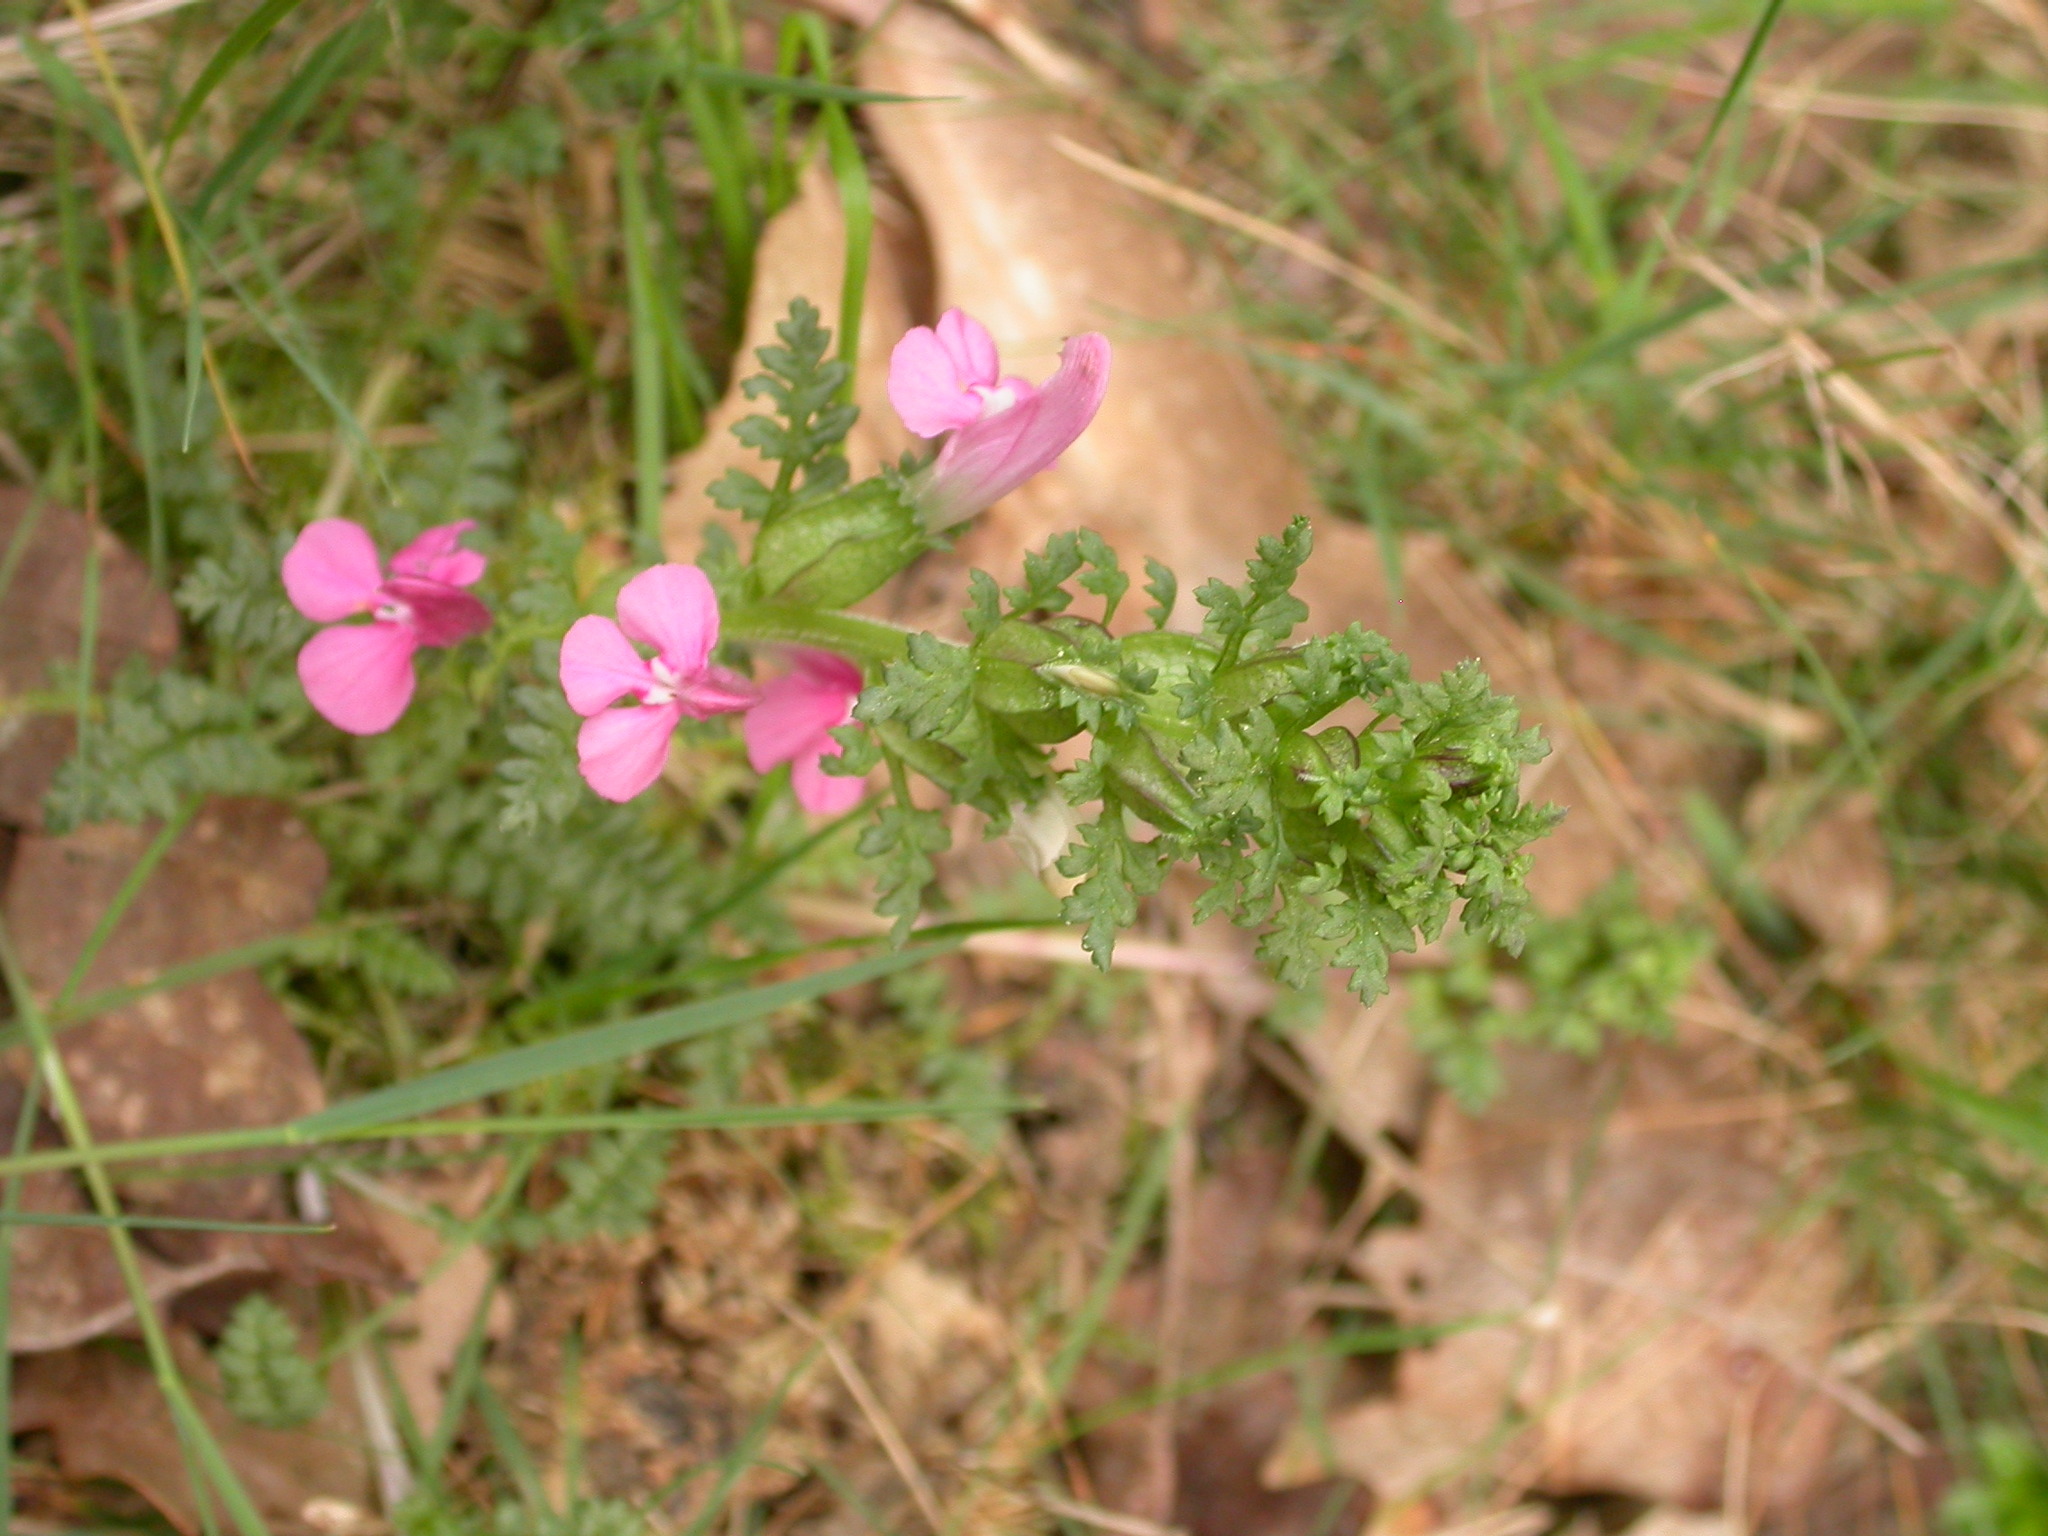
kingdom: Plantae
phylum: Tracheophyta
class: Magnoliopsida
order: Lamiales
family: Orobanchaceae
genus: Pedicularis
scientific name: Pedicularis sylvatica
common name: Lousewort
